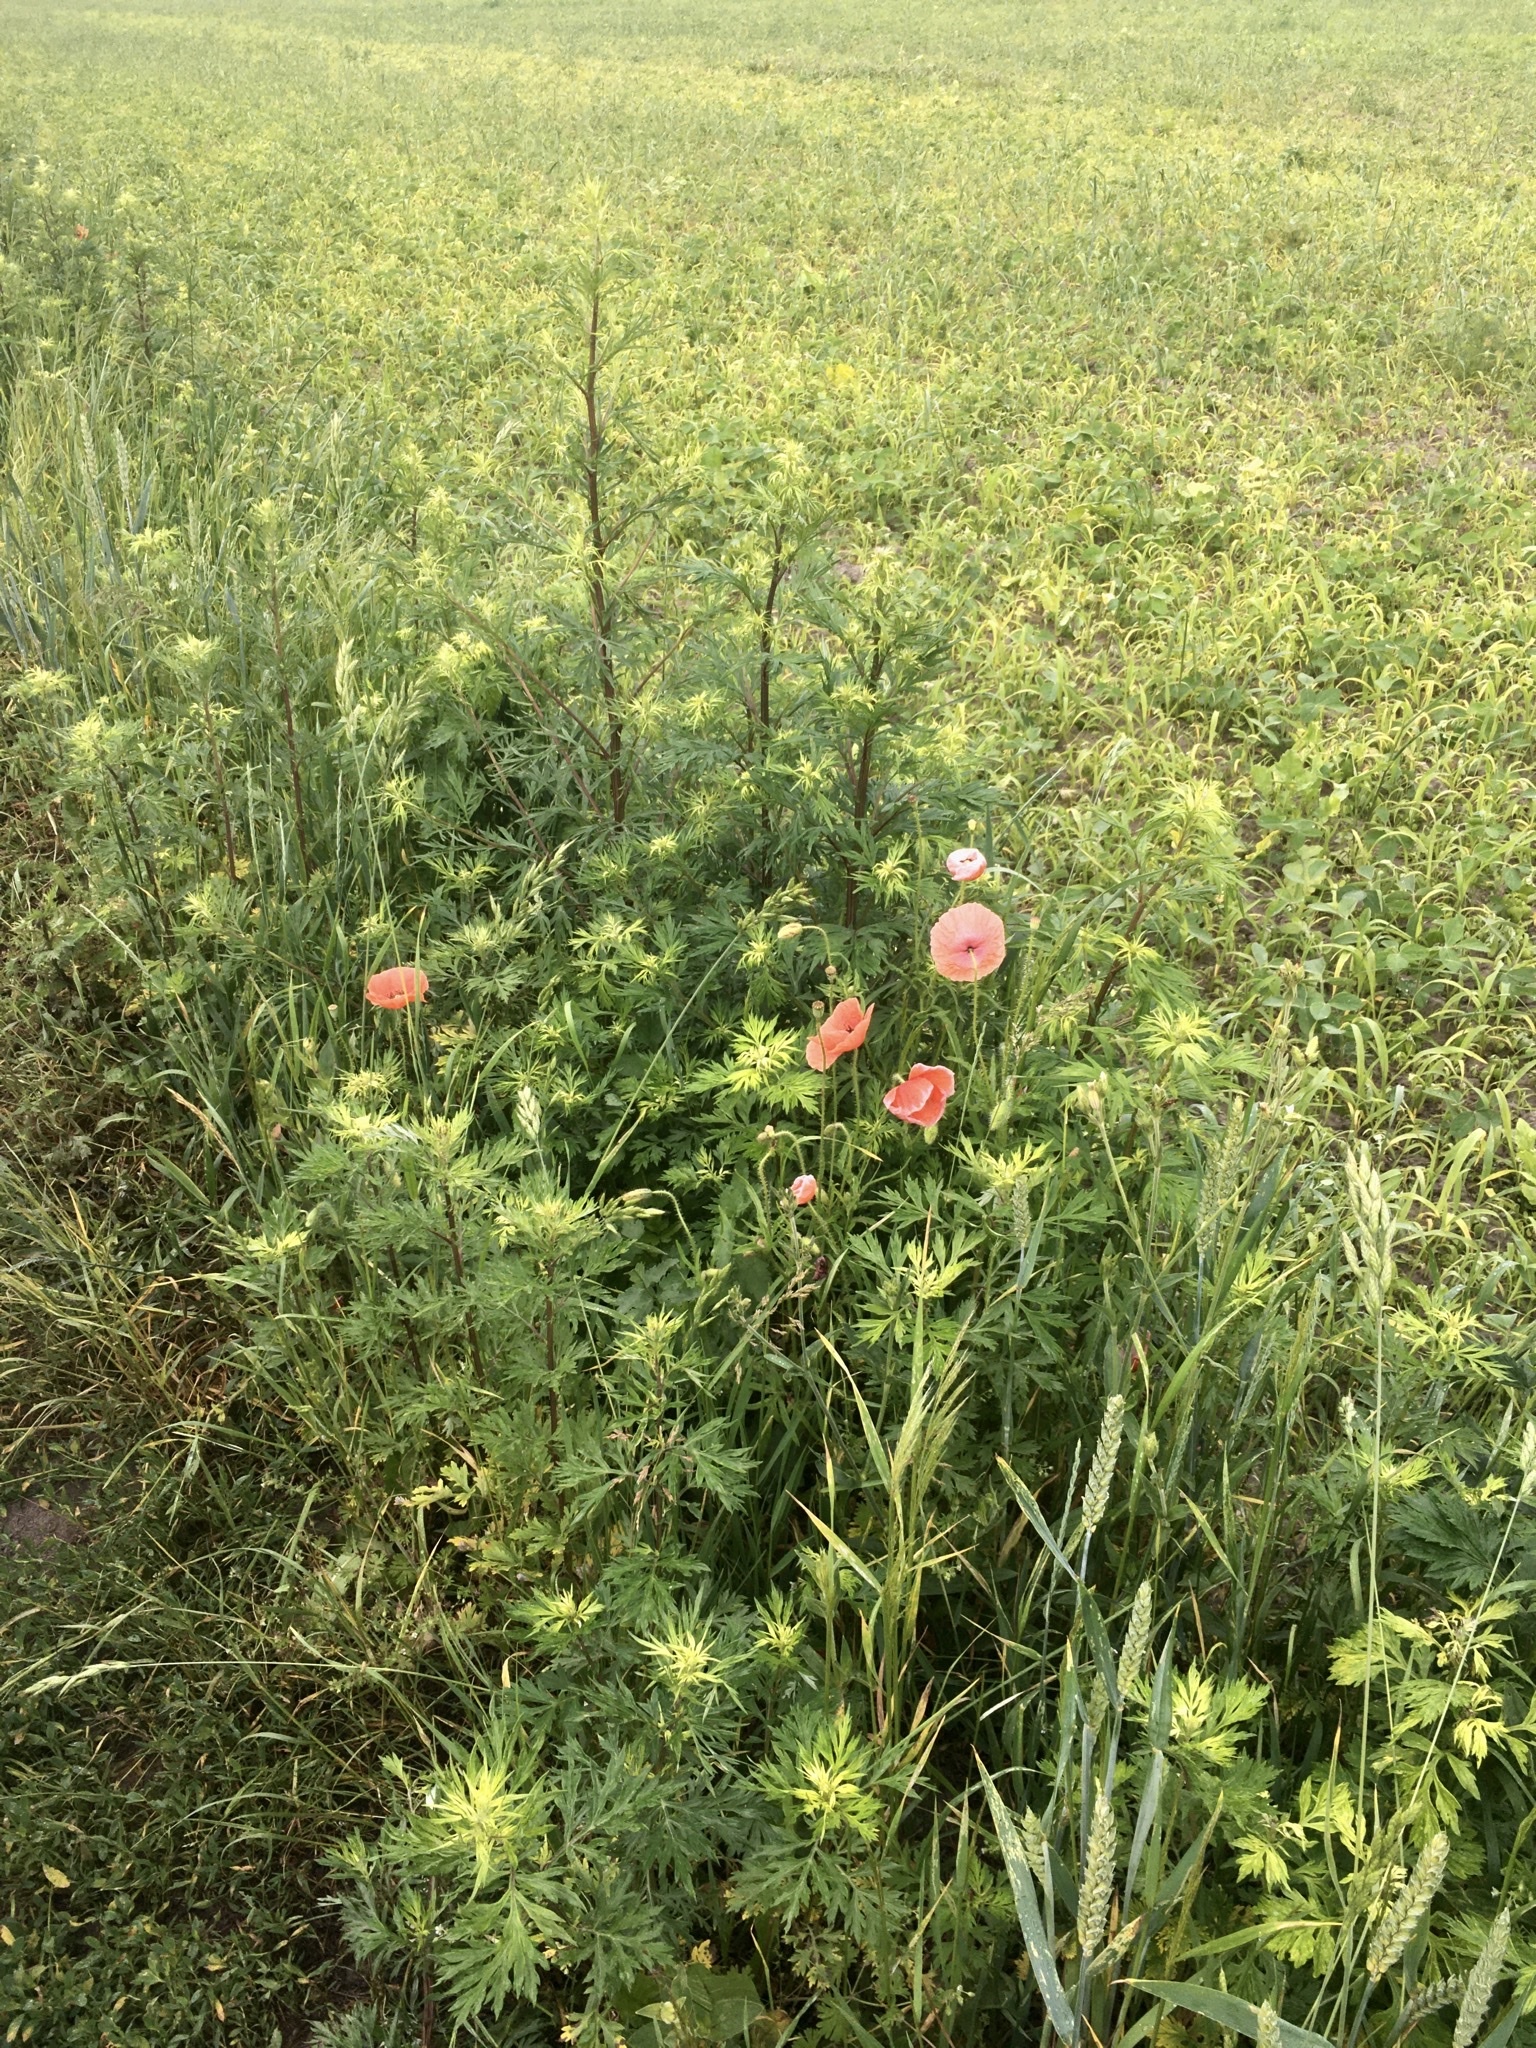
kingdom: Plantae
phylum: Tracheophyta
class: Magnoliopsida
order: Ranunculales
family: Papaveraceae
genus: Papaver
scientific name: Papaver rhoeas
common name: Corn poppy
